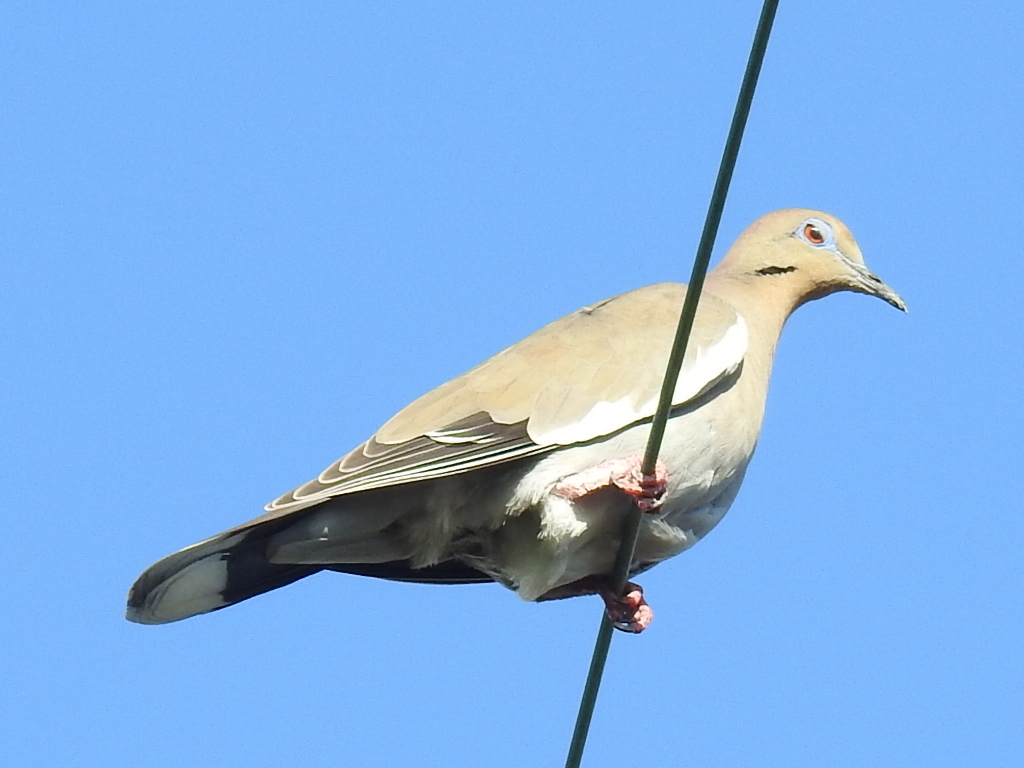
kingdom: Animalia
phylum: Chordata
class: Aves
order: Columbiformes
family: Columbidae
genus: Zenaida
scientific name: Zenaida asiatica
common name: White-winged dove
